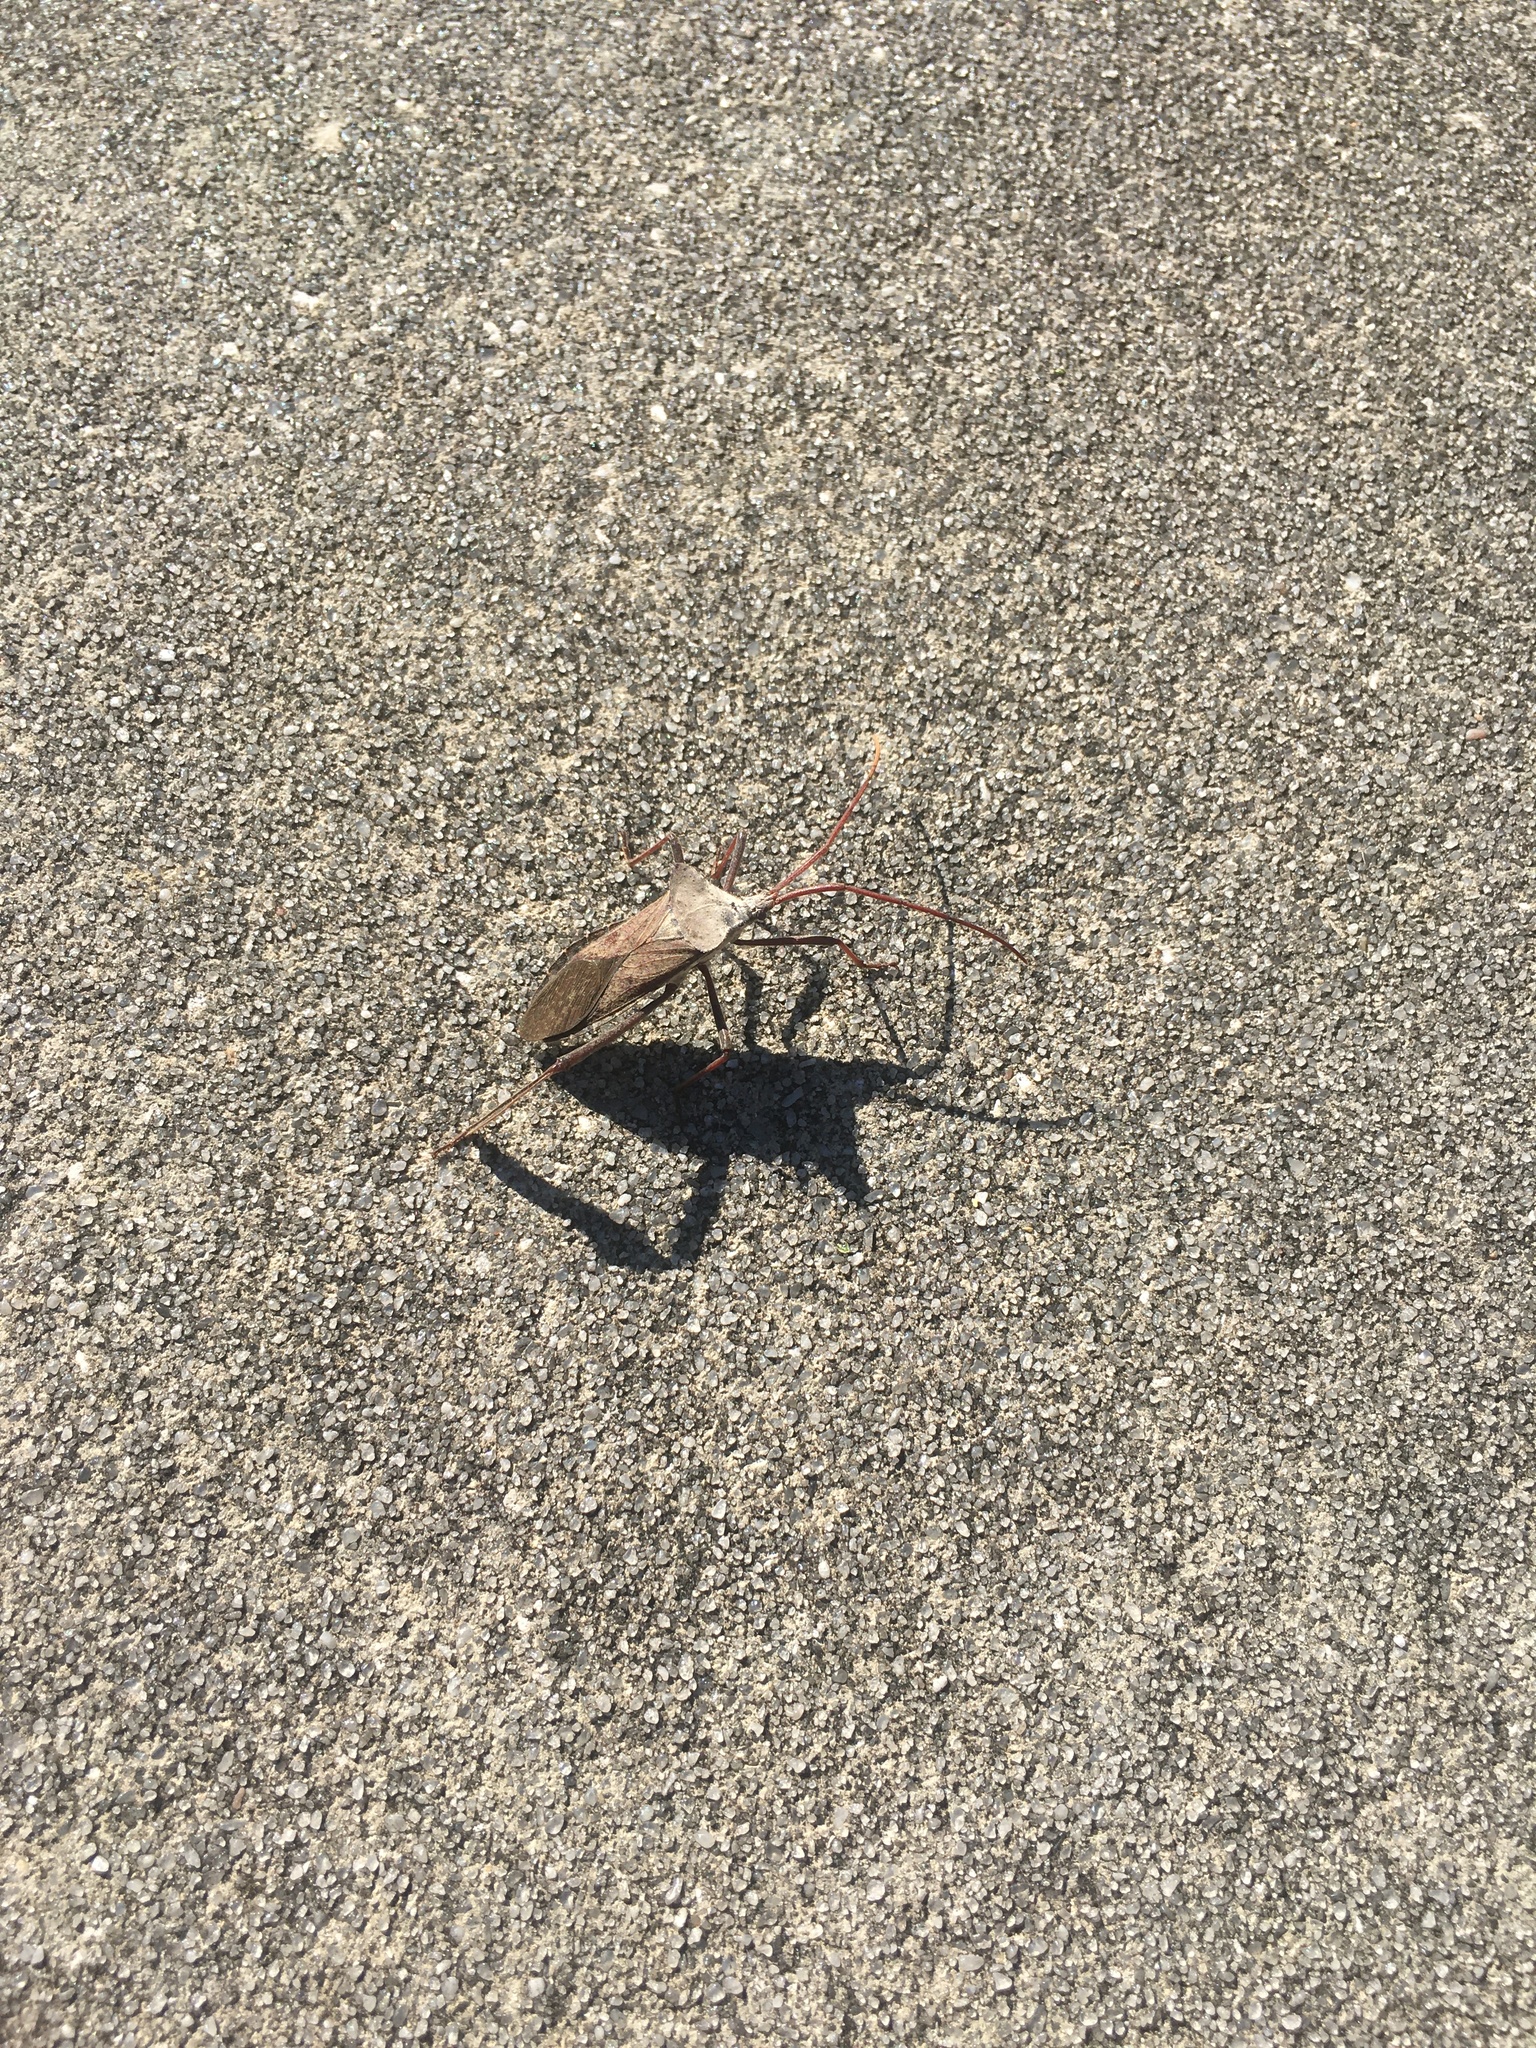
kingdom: Animalia
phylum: Arthropoda
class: Insecta
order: Hemiptera
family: Coreidae
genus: Acanthocephala
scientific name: Acanthocephala declivis
